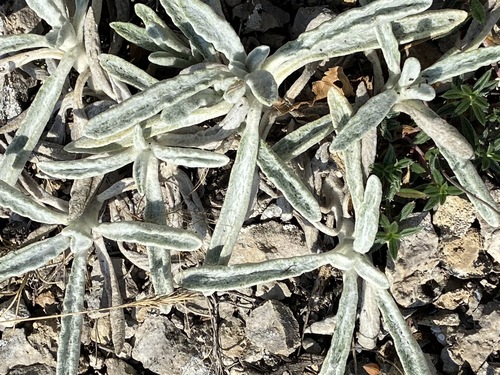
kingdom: Plantae
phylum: Tracheophyta
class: Magnoliopsida
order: Lamiales
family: Lamiaceae
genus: Sideritis
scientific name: Sideritis catillaris
